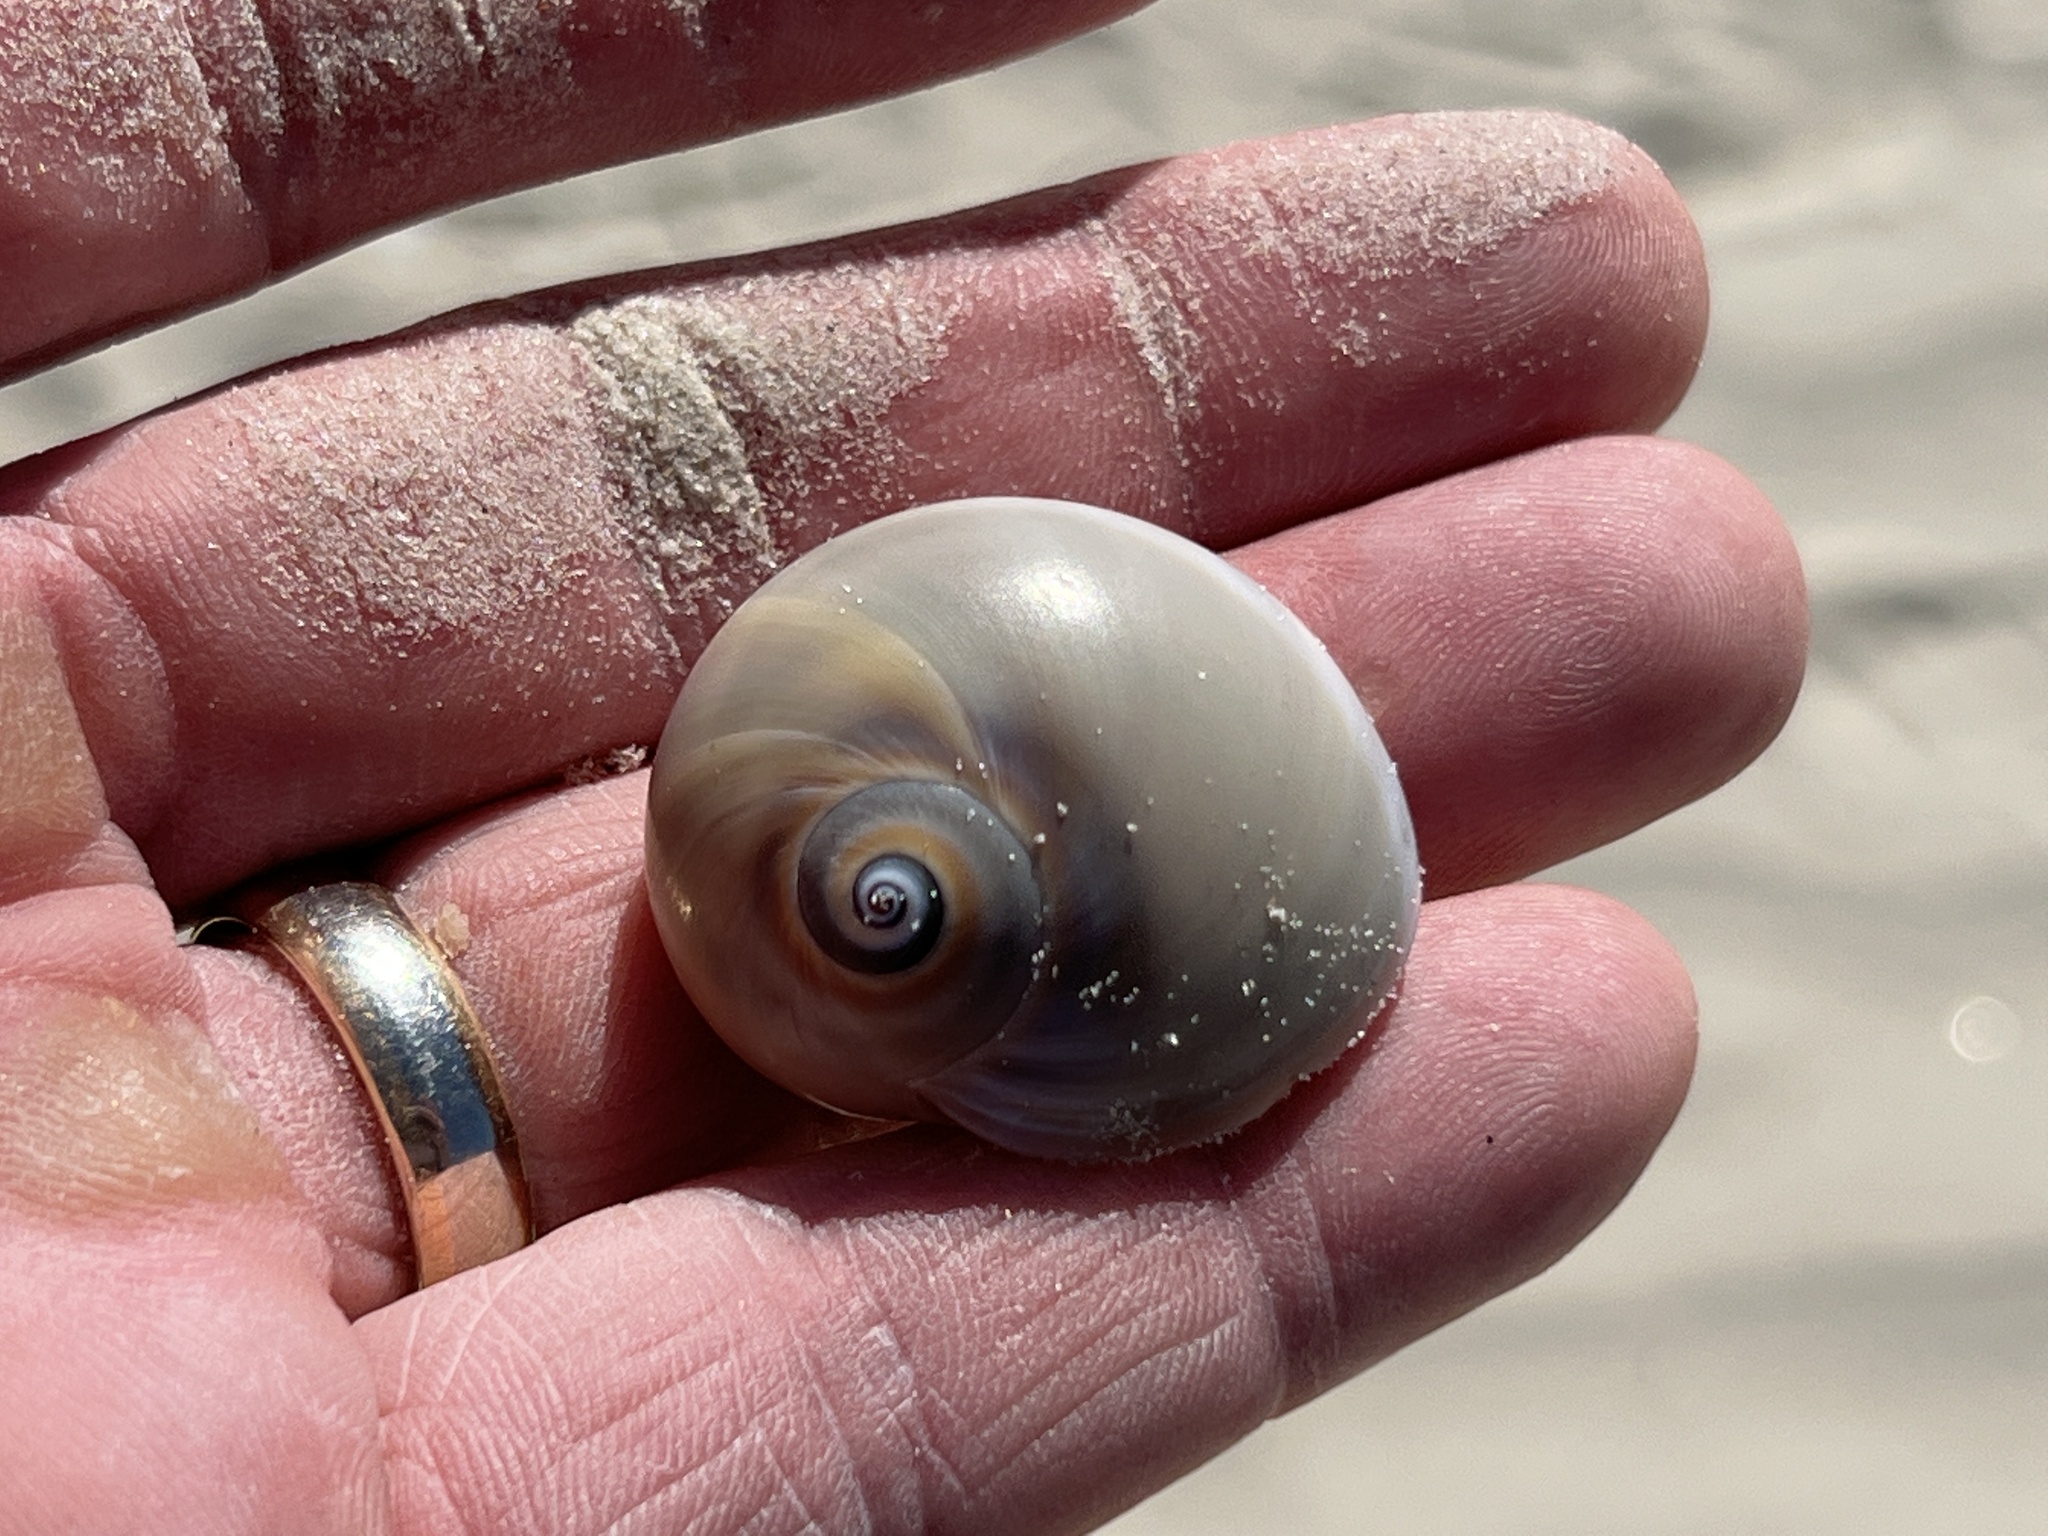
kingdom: Animalia
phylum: Mollusca
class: Gastropoda
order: Littorinimorpha
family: Naticidae
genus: Neverita
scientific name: Neverita duplicata
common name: Lobed moonsnail
